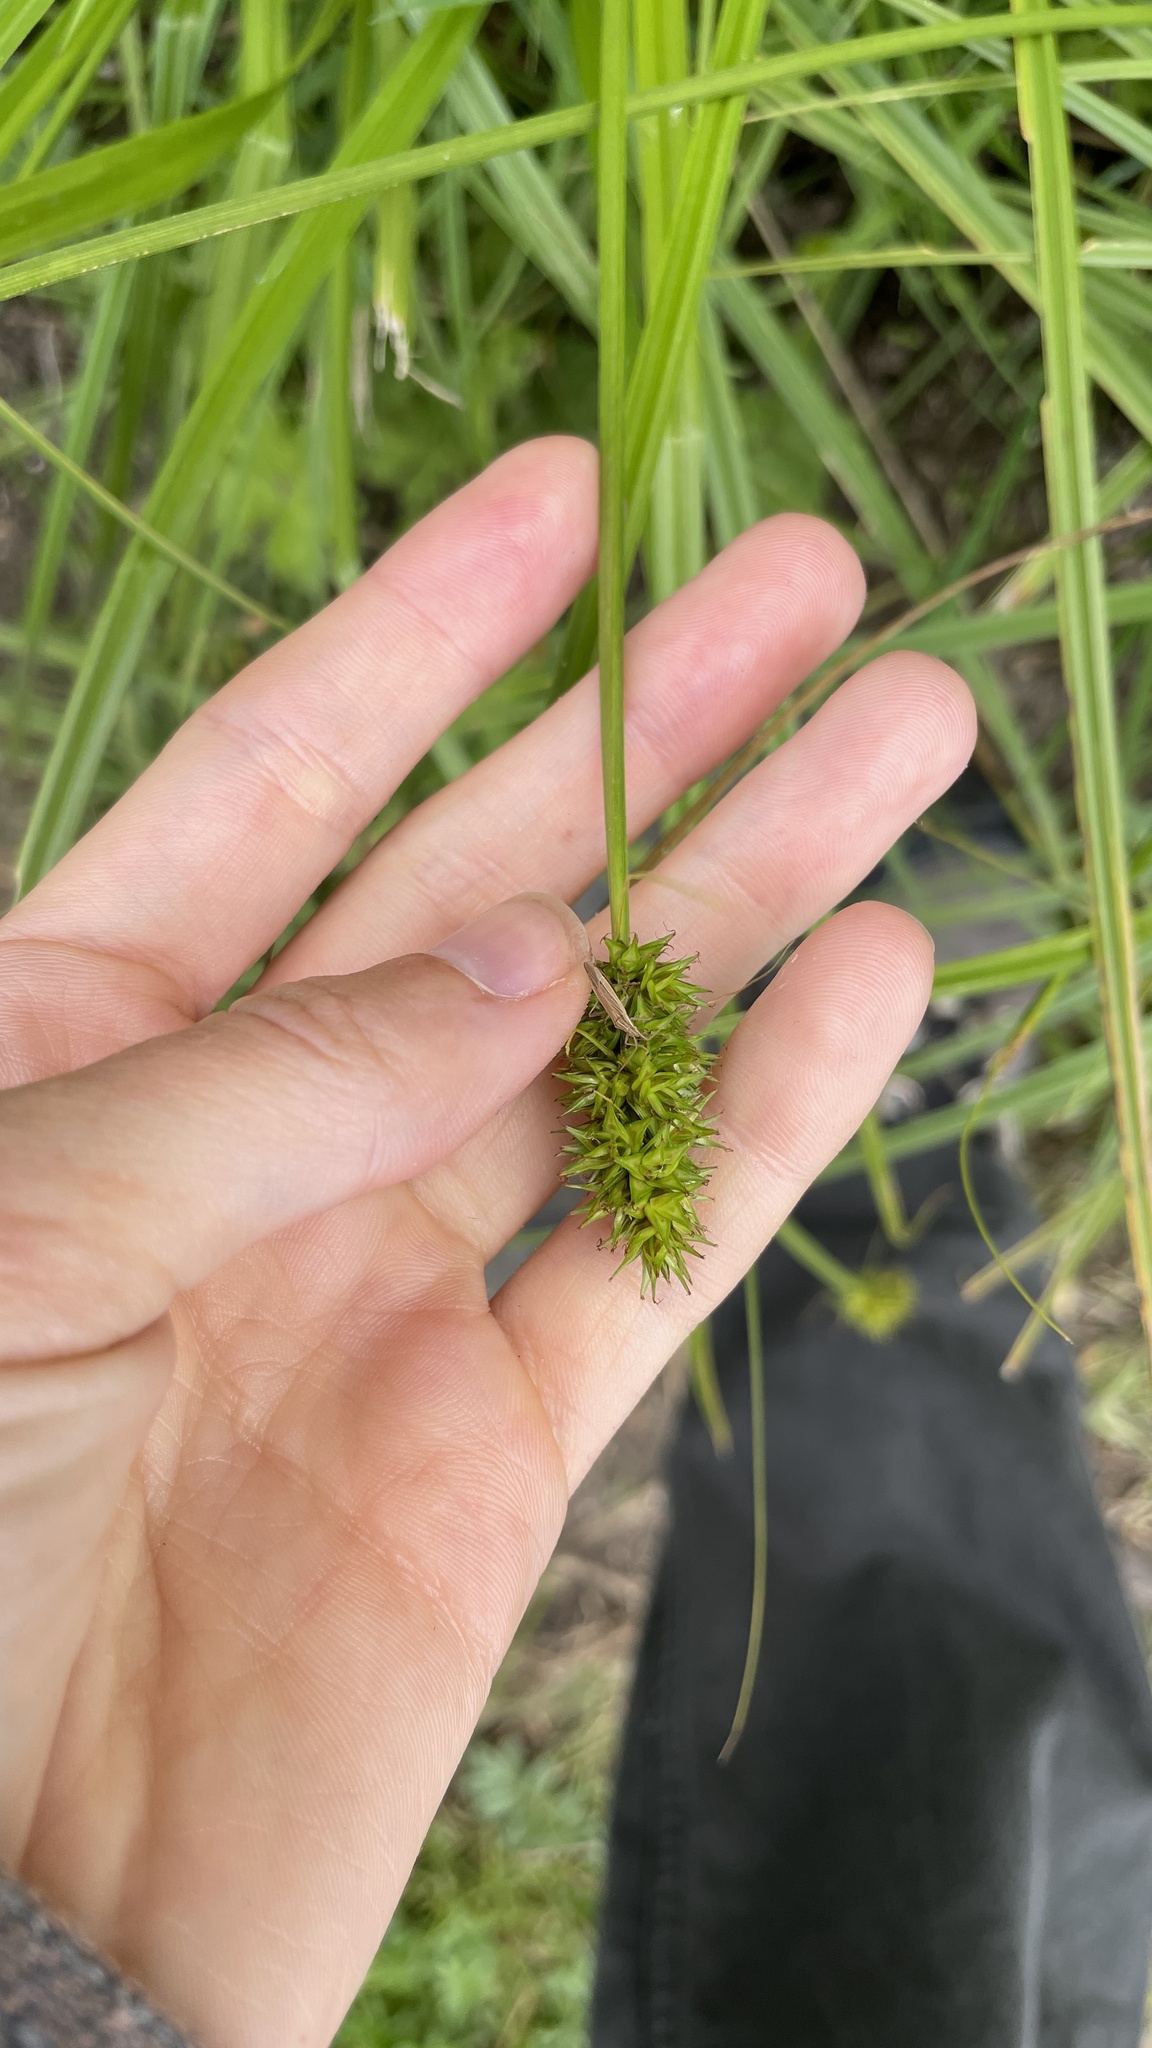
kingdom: Plantae
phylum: Tracheophyta
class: Liliopsida
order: Poales
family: Cyperaceae
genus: Carex
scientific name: Carex otrubae
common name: False fox-sedge
